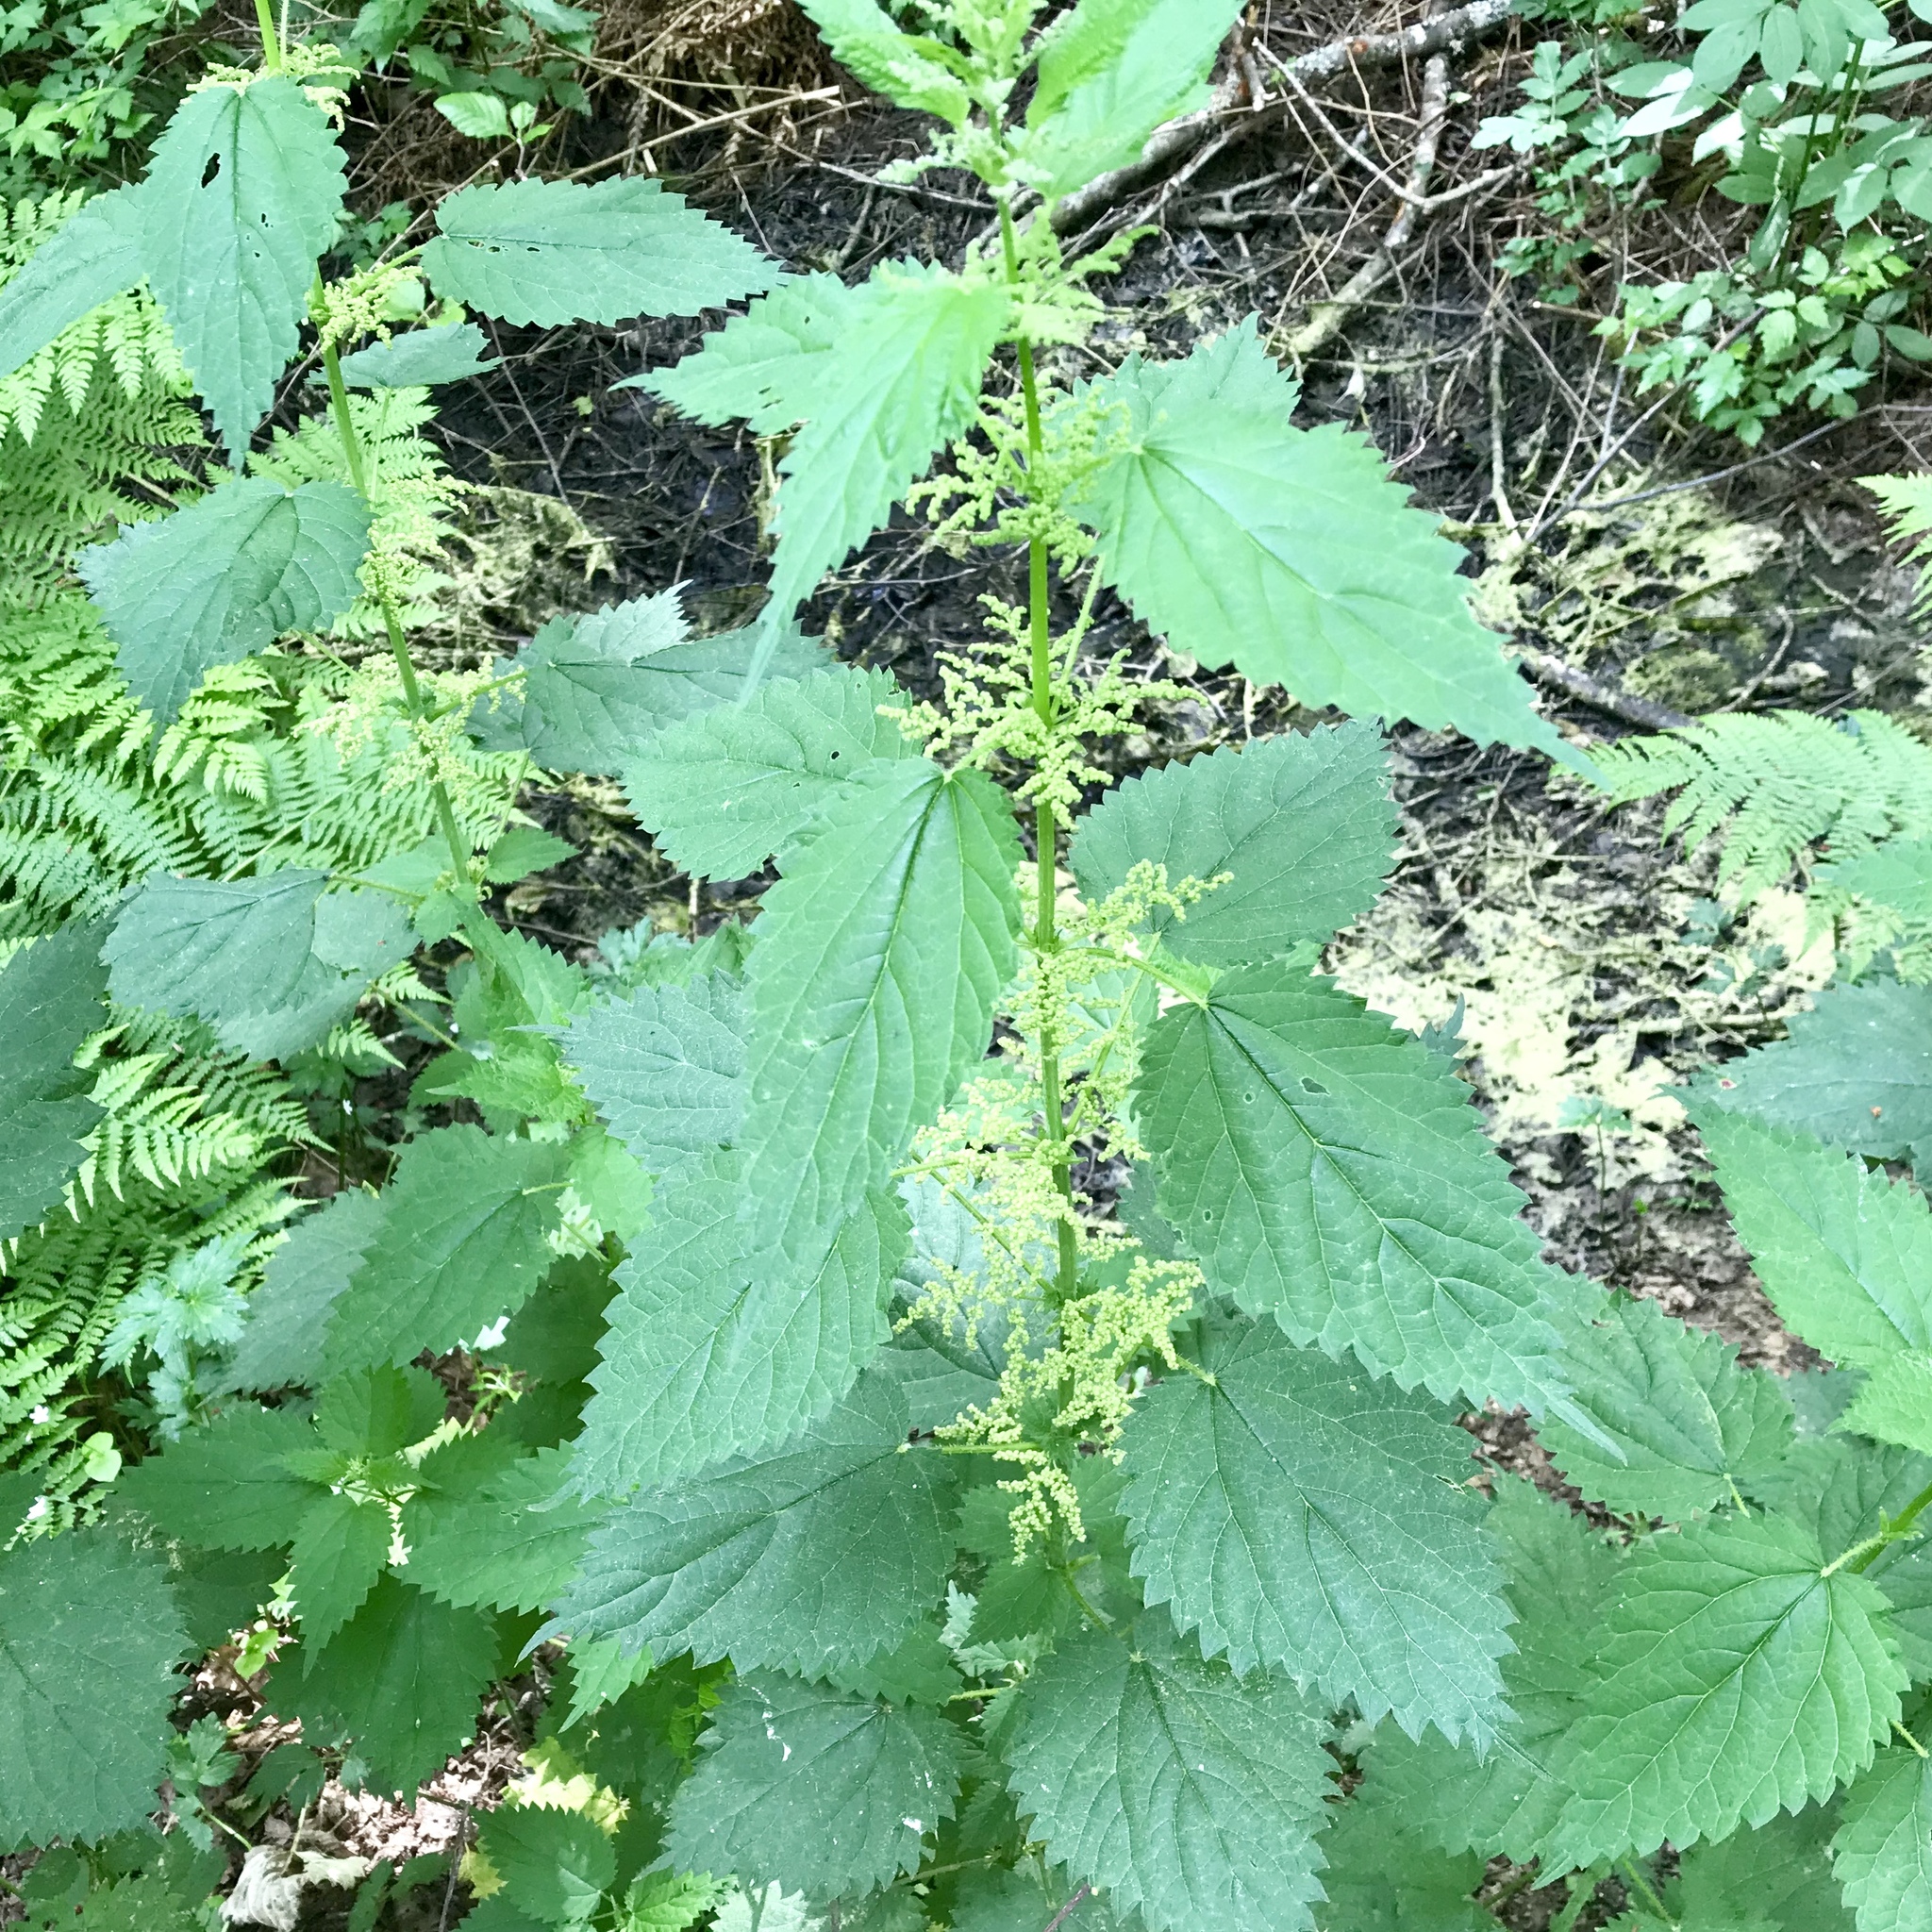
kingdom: Plantae
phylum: Tracheophyta
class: Magnoliopsida
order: Rosales
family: Urticaceae
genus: Urtica
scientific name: Urtica dioica
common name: Common nettle
